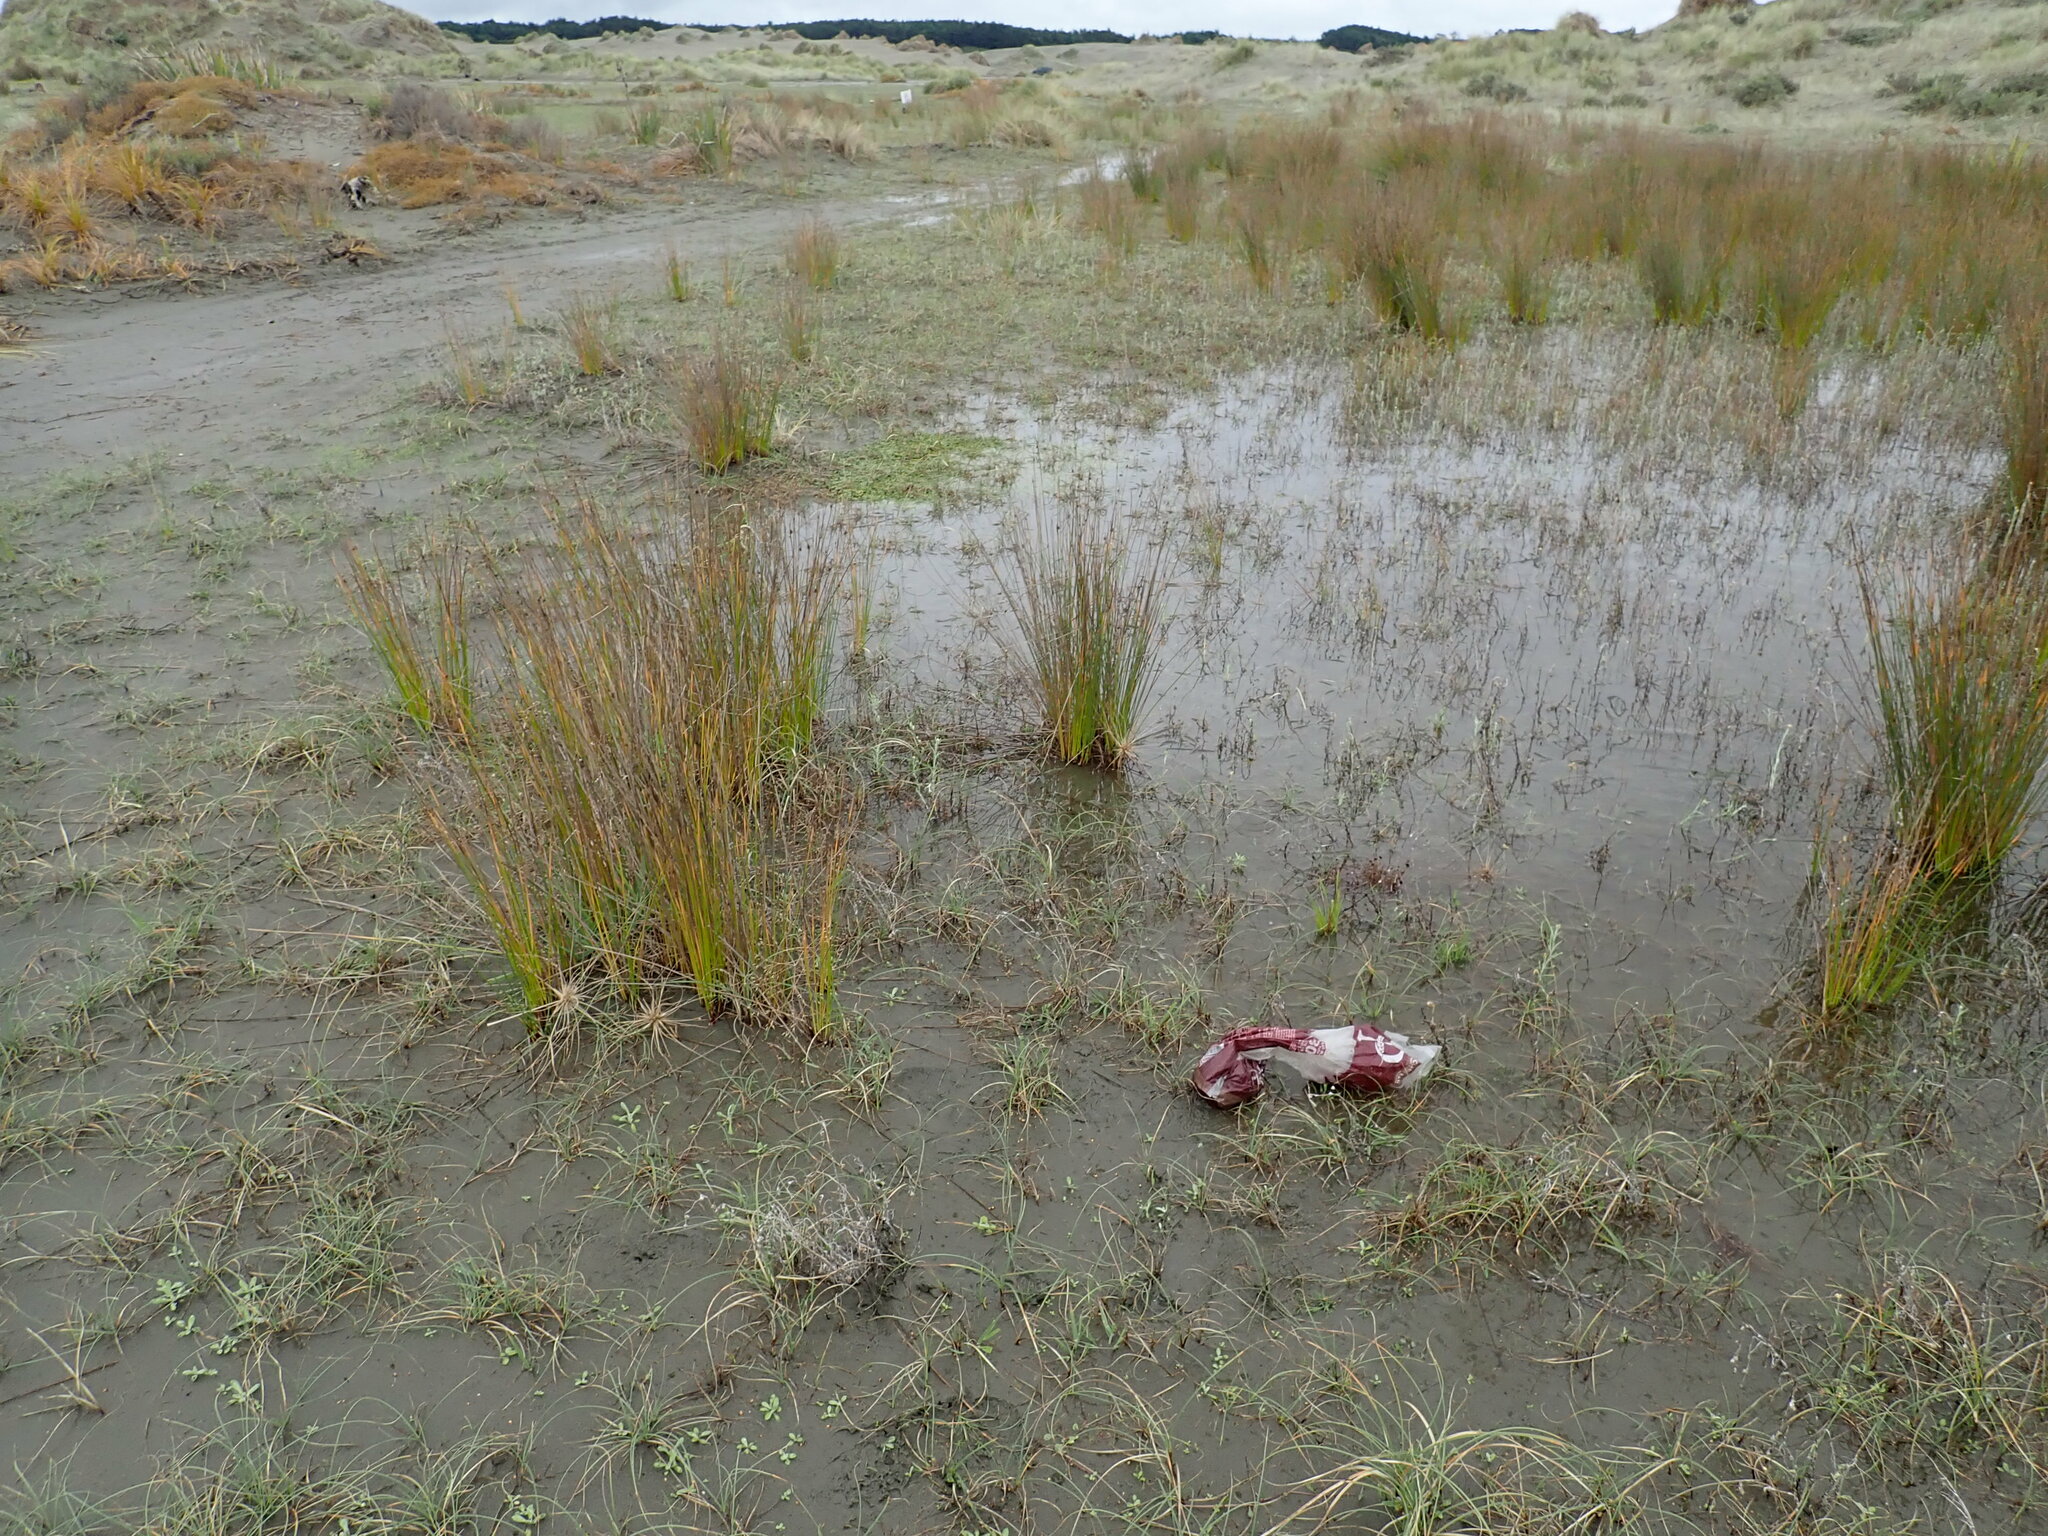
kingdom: Plantae
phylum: Tracheophyta
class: Liliopsida
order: Poales
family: Juncaceae
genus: Juncus
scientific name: Juncus caespiticius
